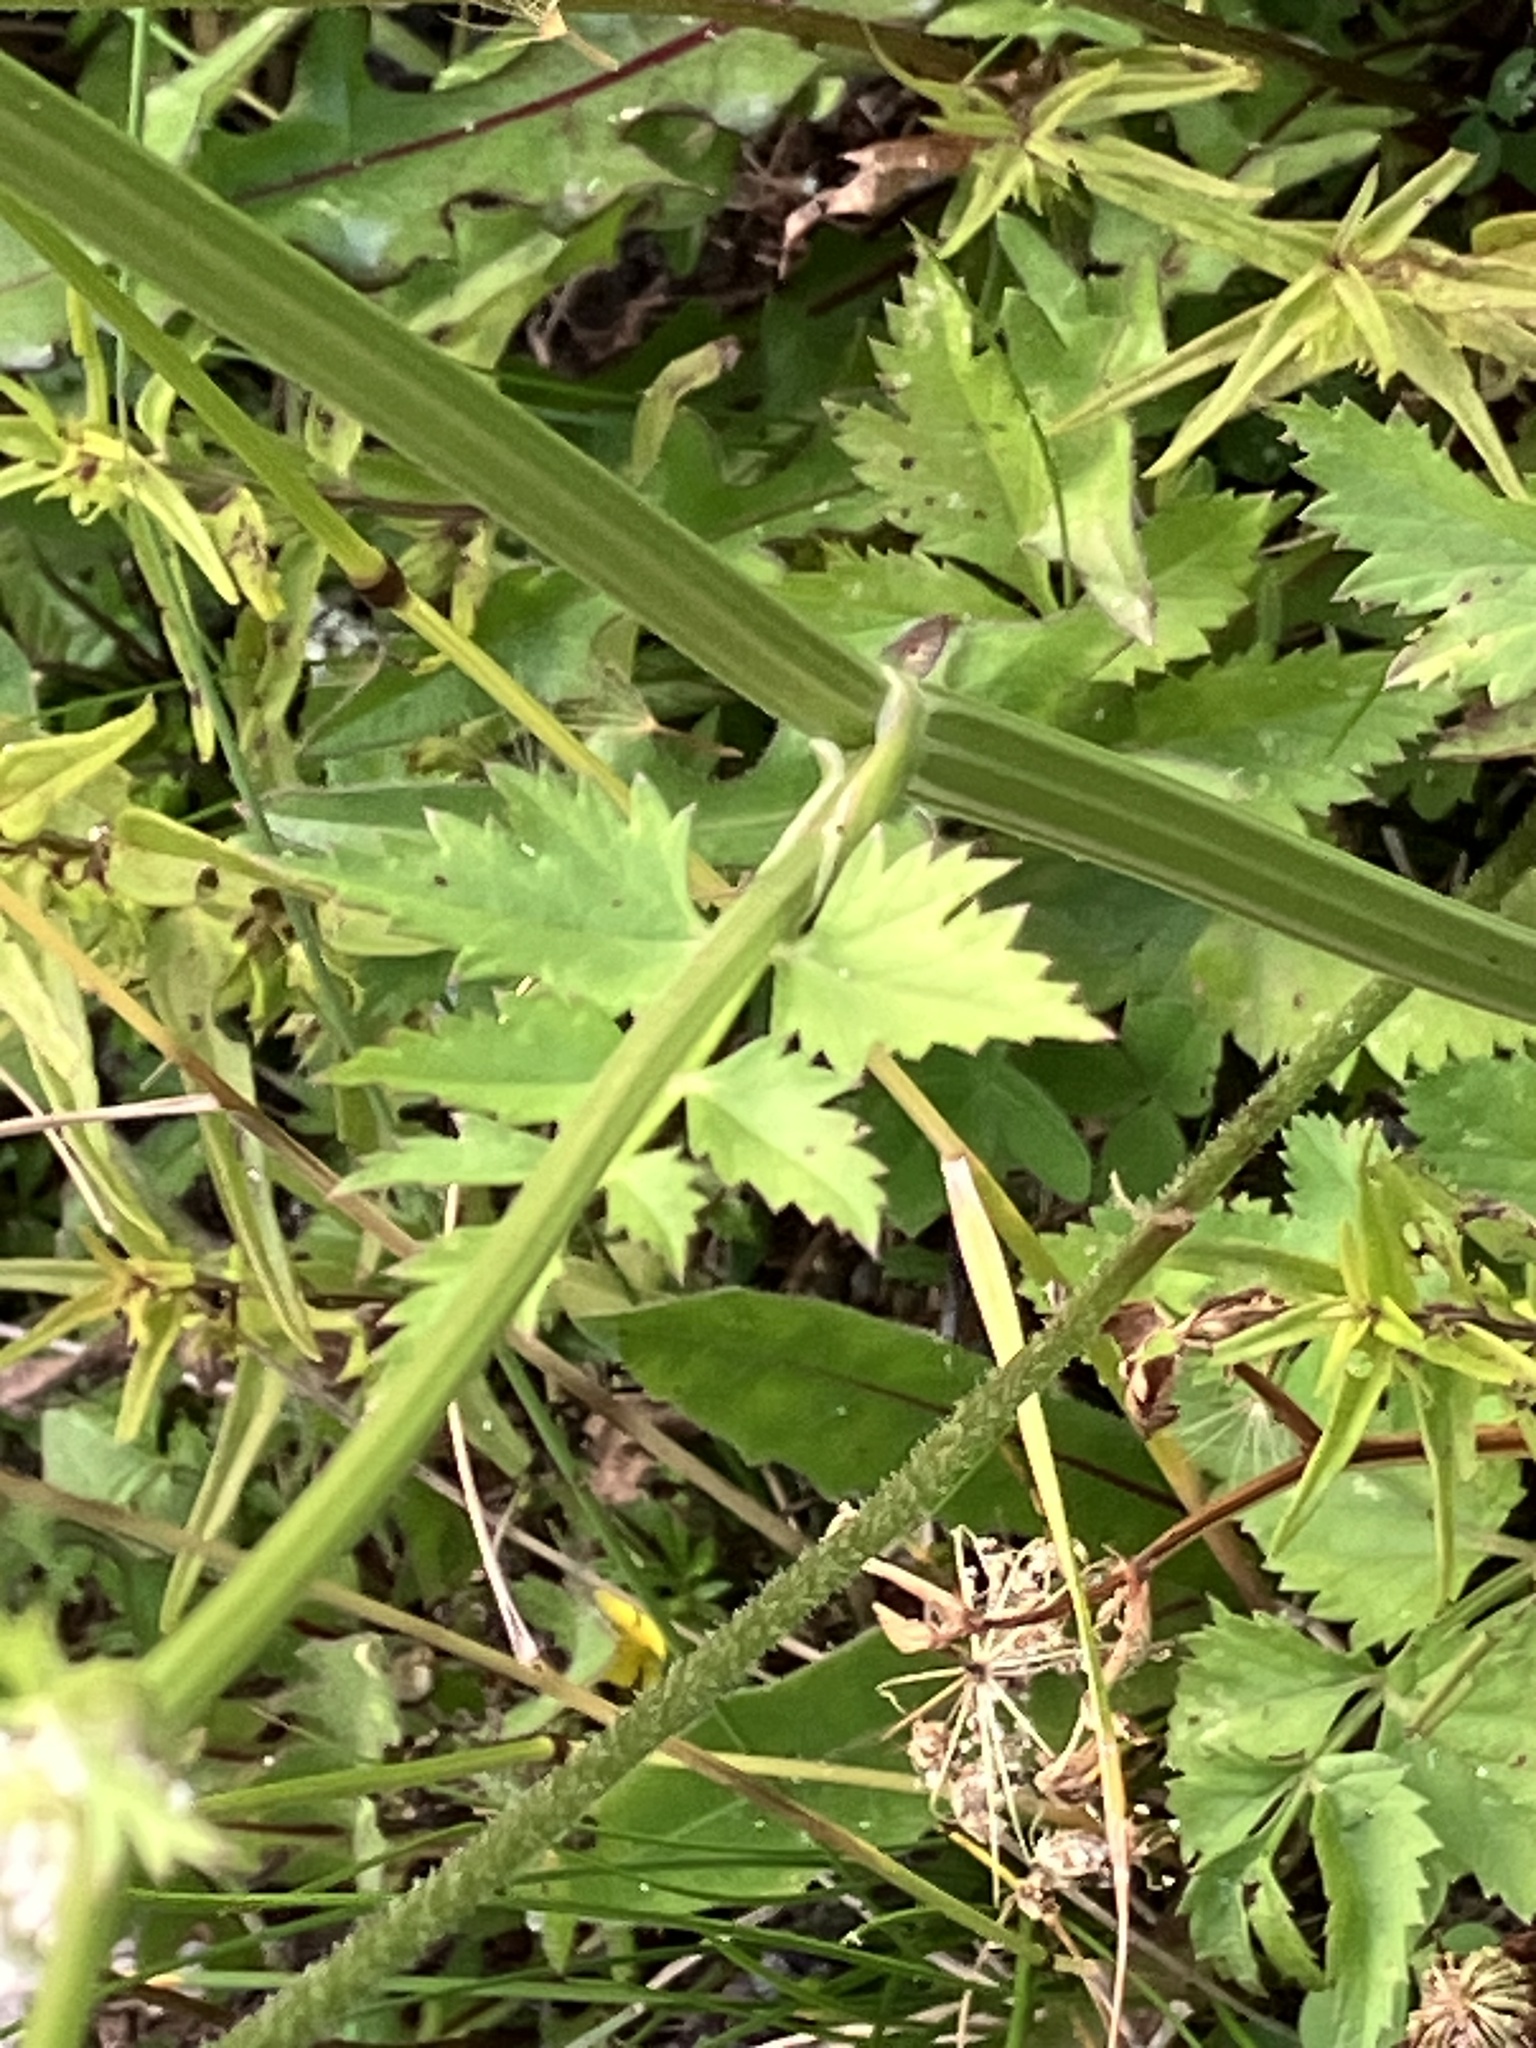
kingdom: Plantae
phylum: Tracheophyta
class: Magnoliopsida
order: Apiales
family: Apiaceae
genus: Pimpinella
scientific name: Pimpinella major
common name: Greater burnet-saxifrage
